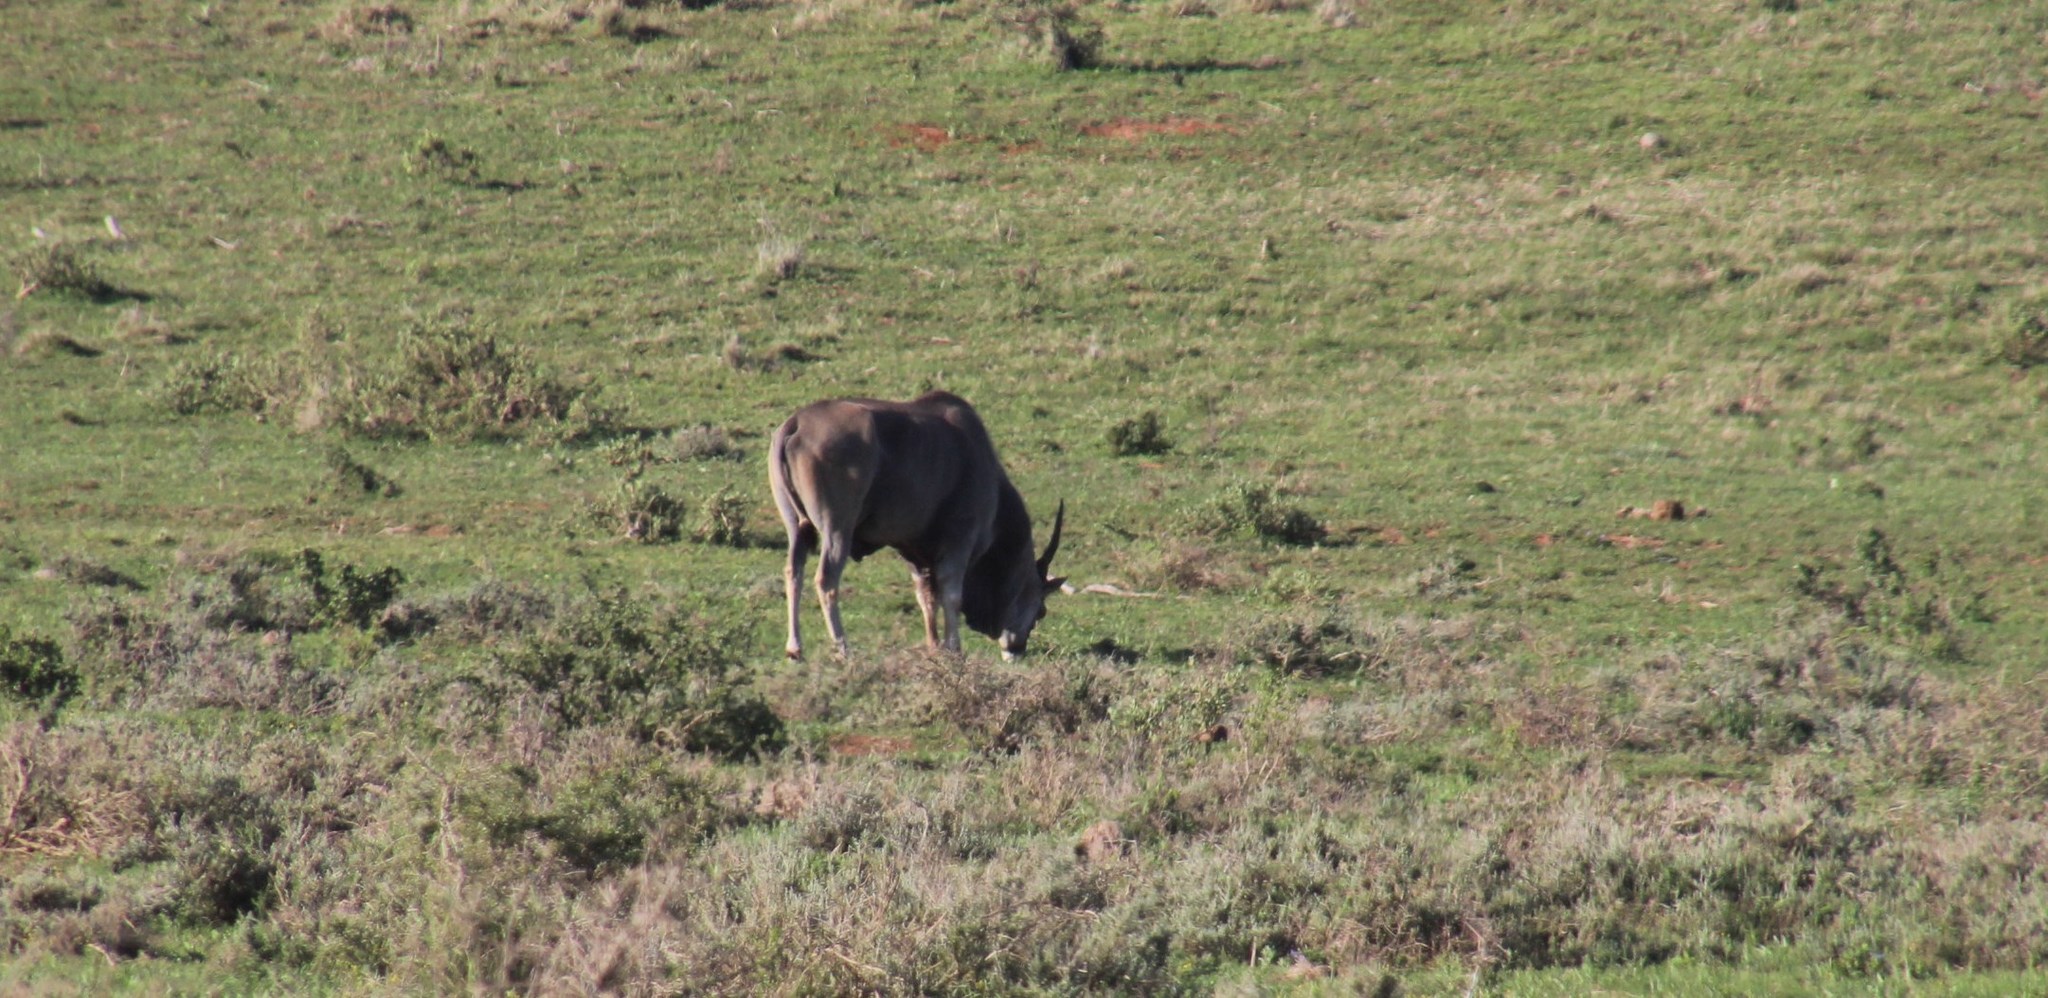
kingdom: Animalia
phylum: Chordata
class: Mammalia
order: Artiodactyla
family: Bovidae
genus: Taurotragus
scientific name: Taurotragus oryx
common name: Common eland
